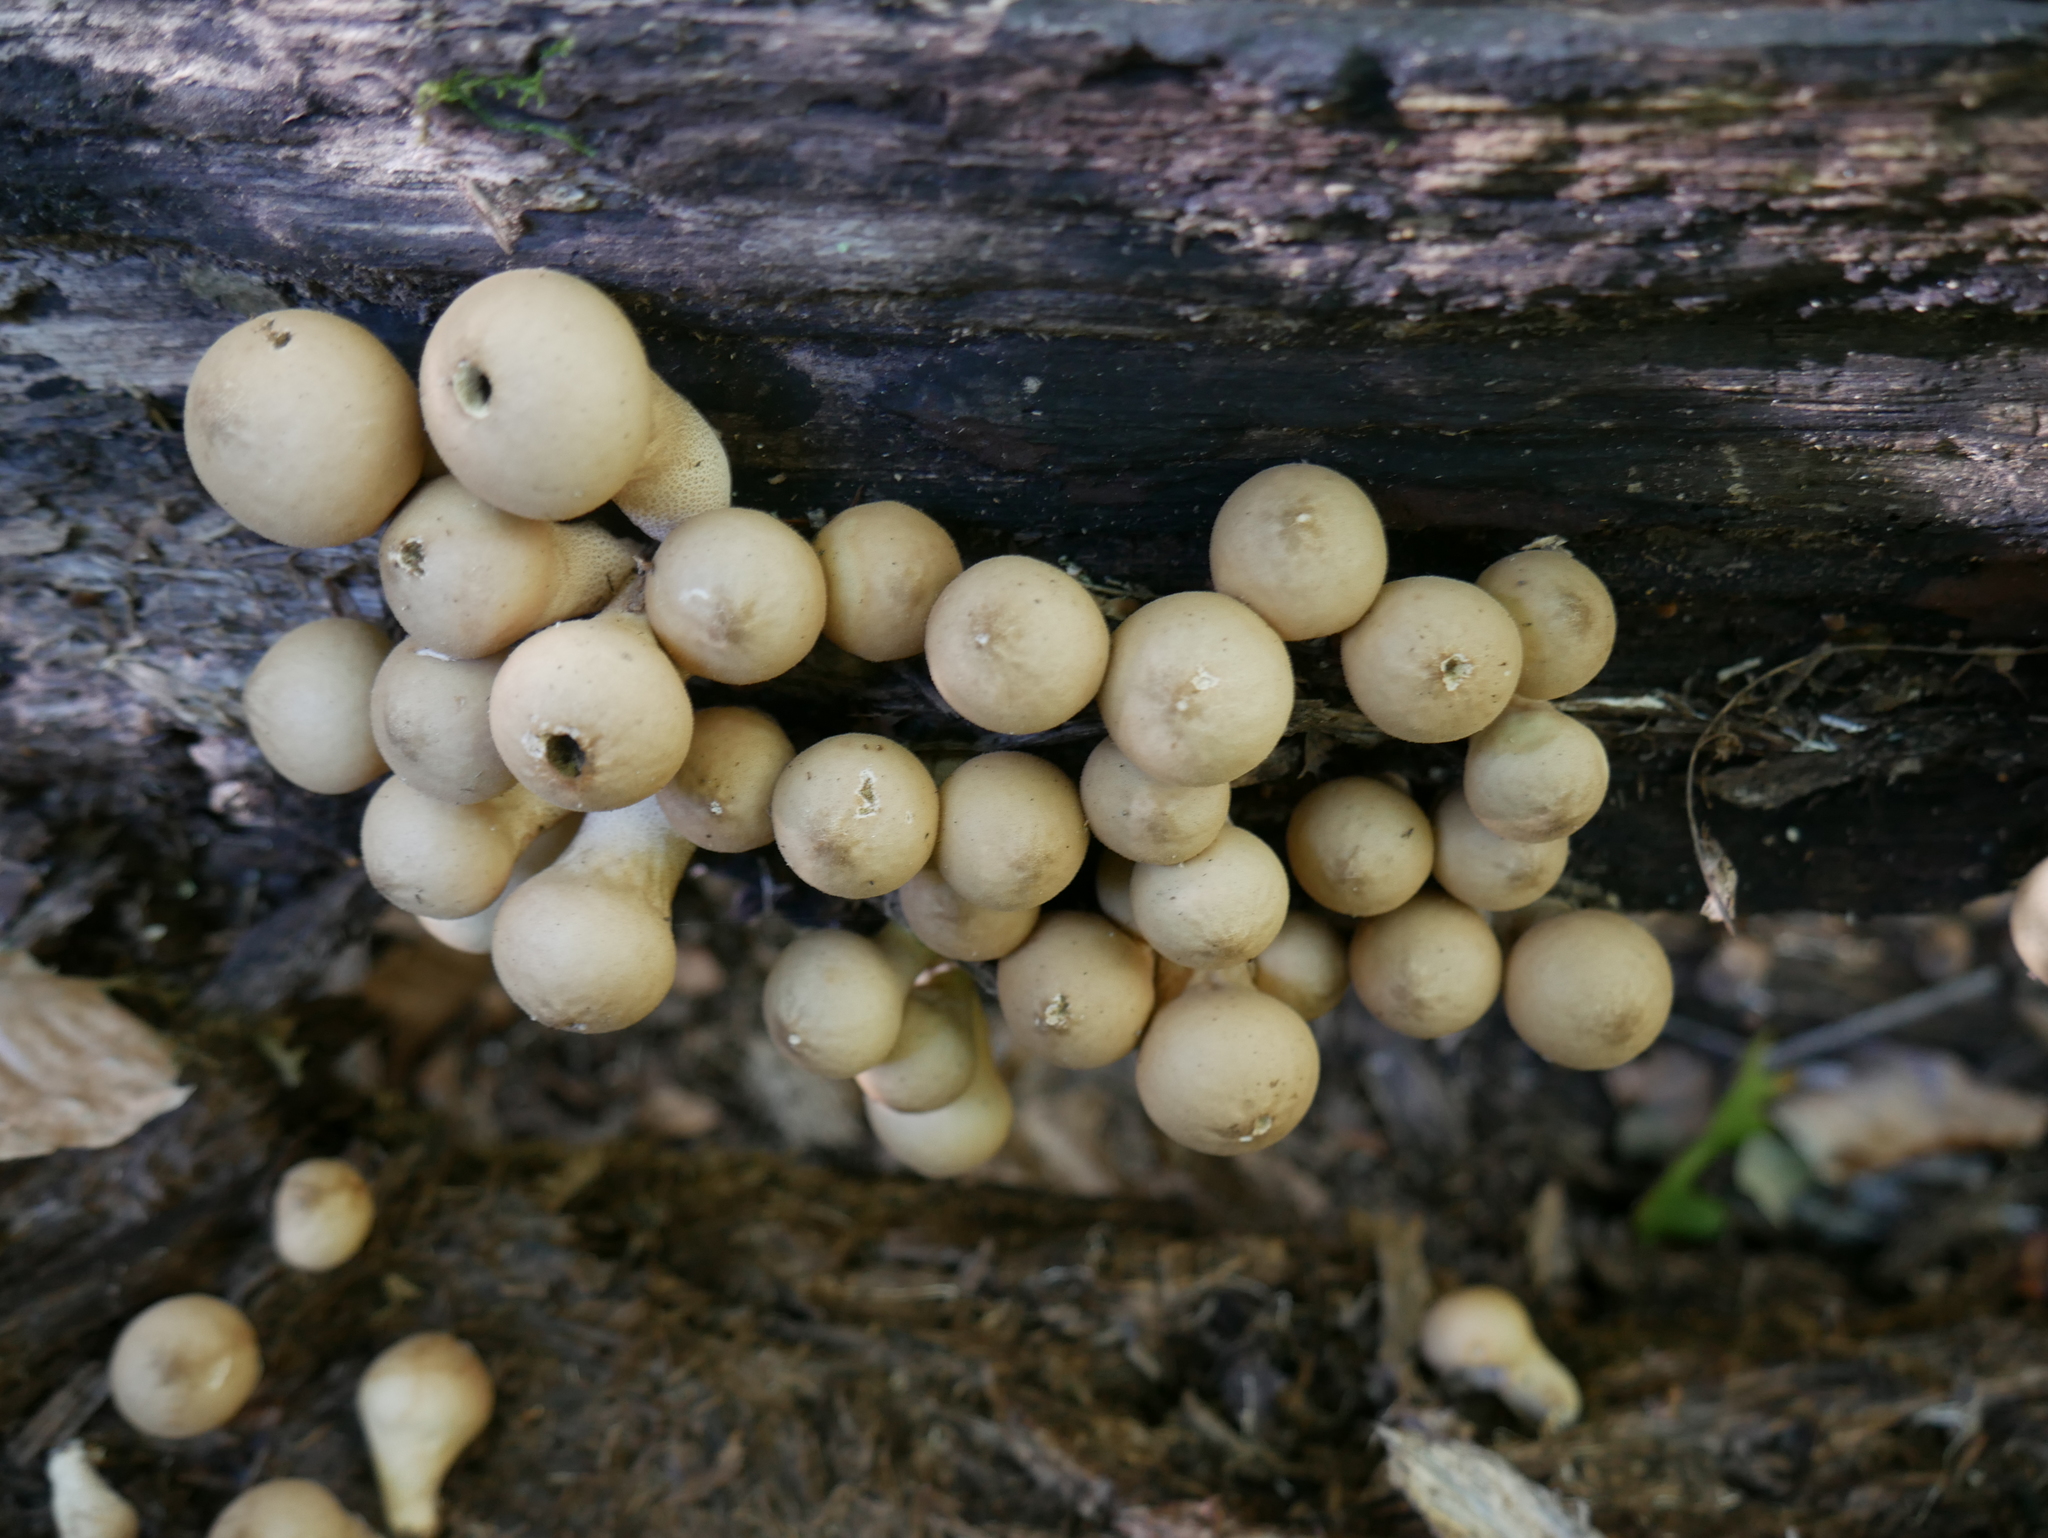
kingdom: Fungi
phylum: Basidiomycota
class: Agaricomycetes
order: Agaricales
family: Lycoperdaceae
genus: Apioperdon
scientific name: Apioperdon pyriforme
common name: Pear-shaped puffball
